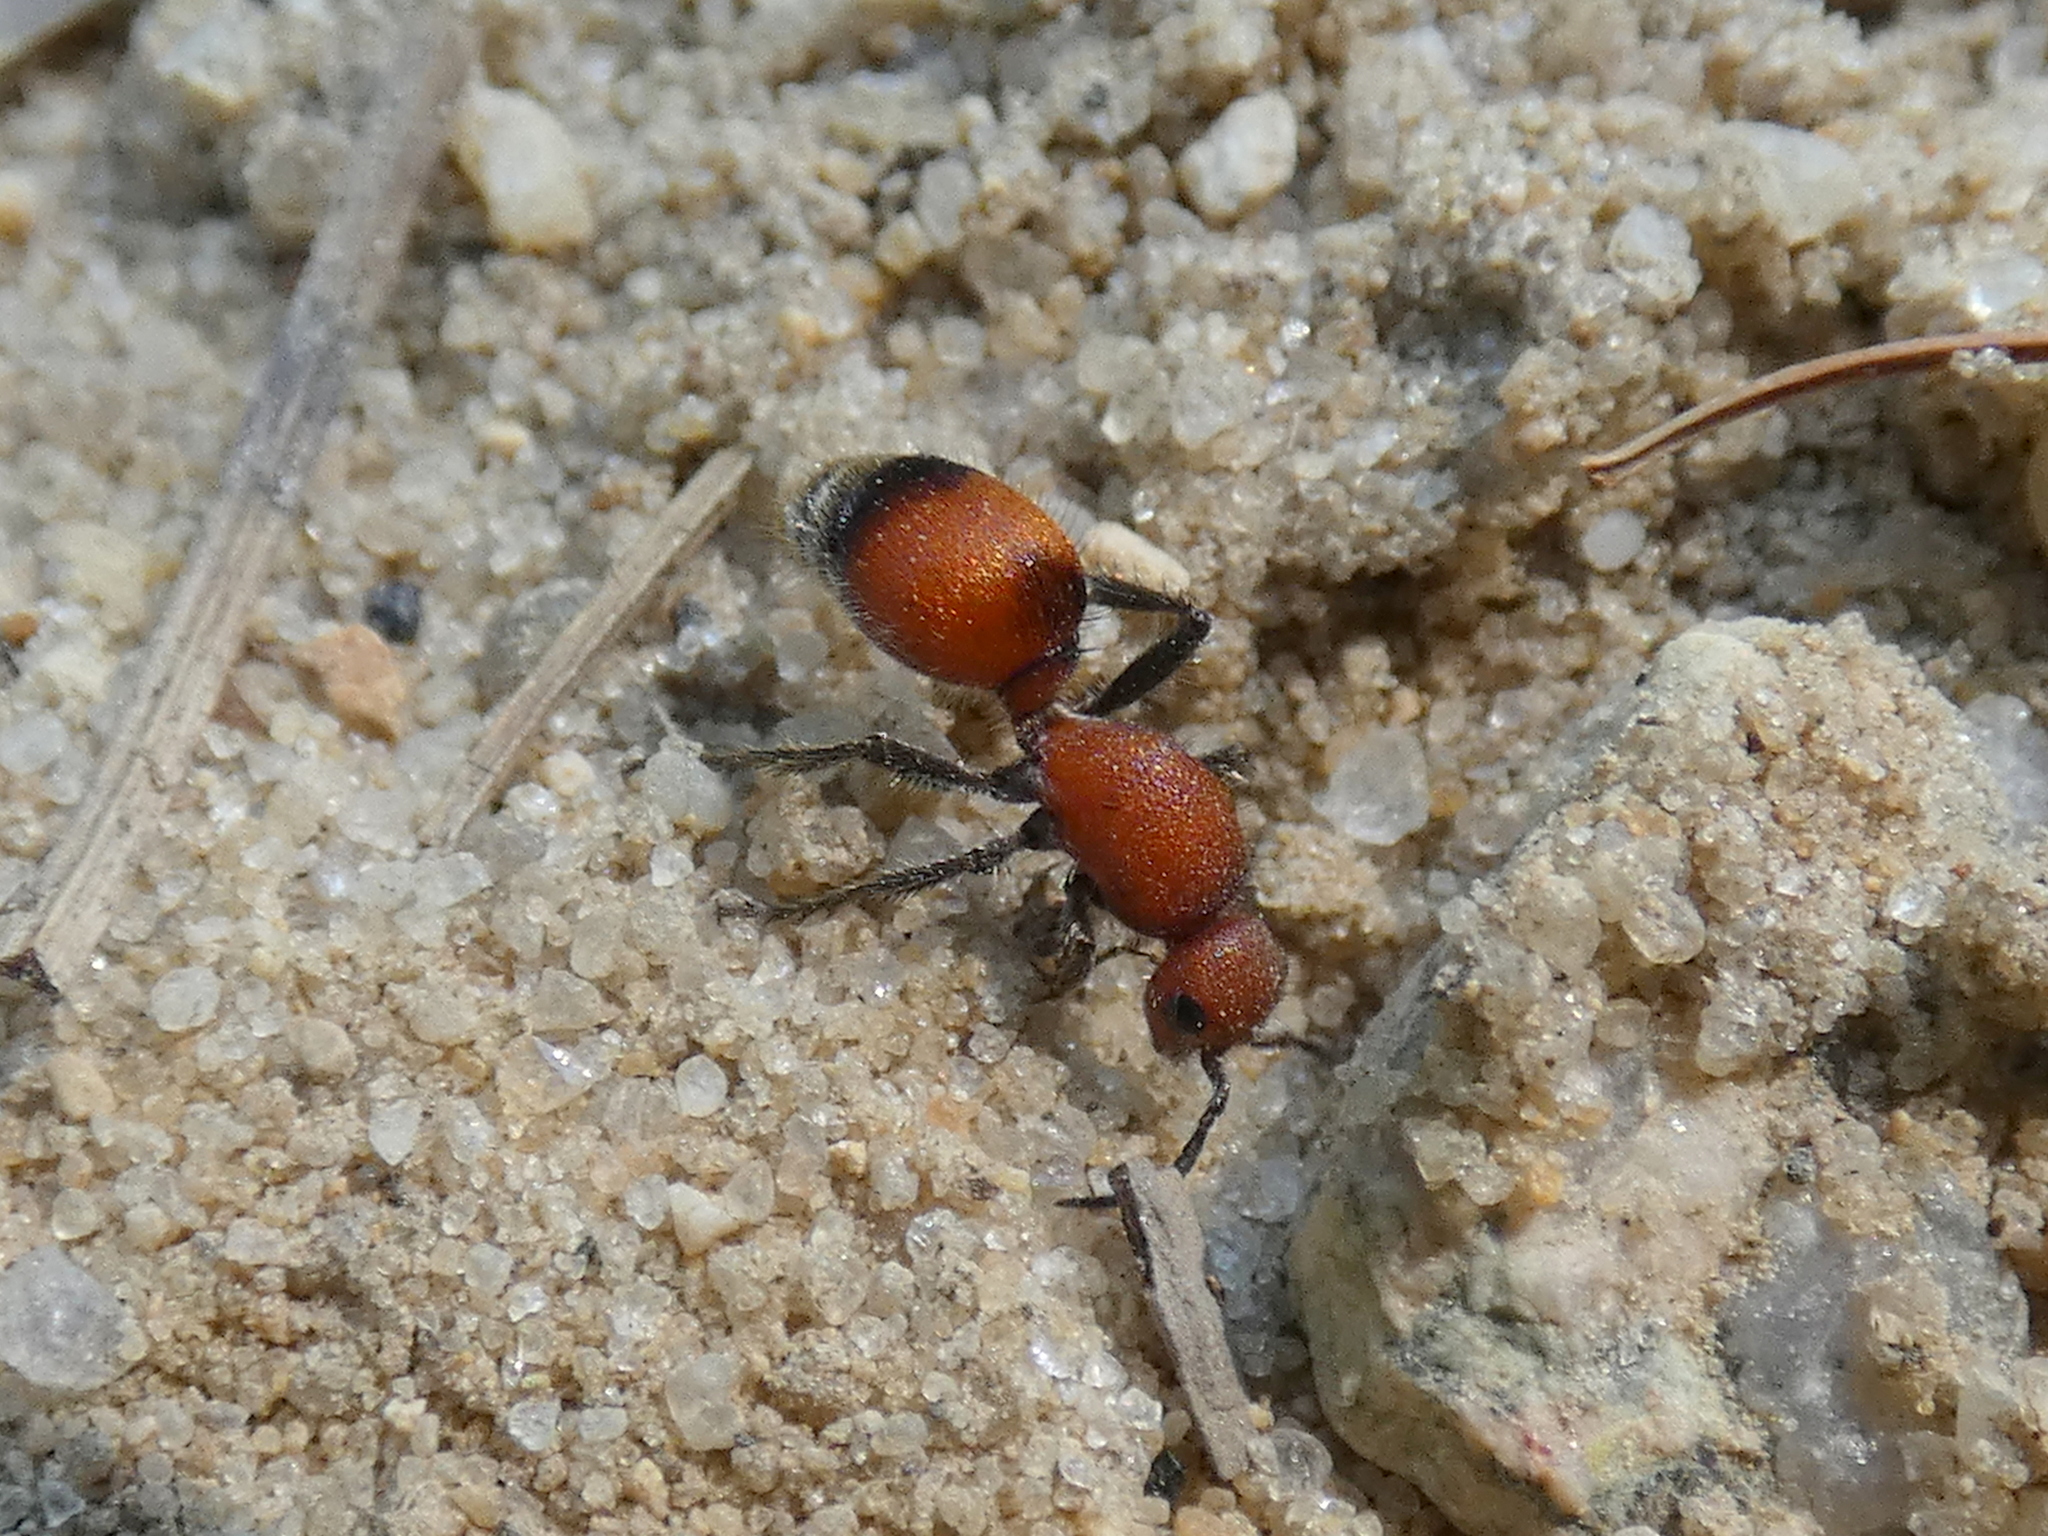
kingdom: Animalia
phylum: Arthropoda
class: Insecta
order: Hymenoptera
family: Mutillidae
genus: Dasymutilla
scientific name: Dasymutilla
